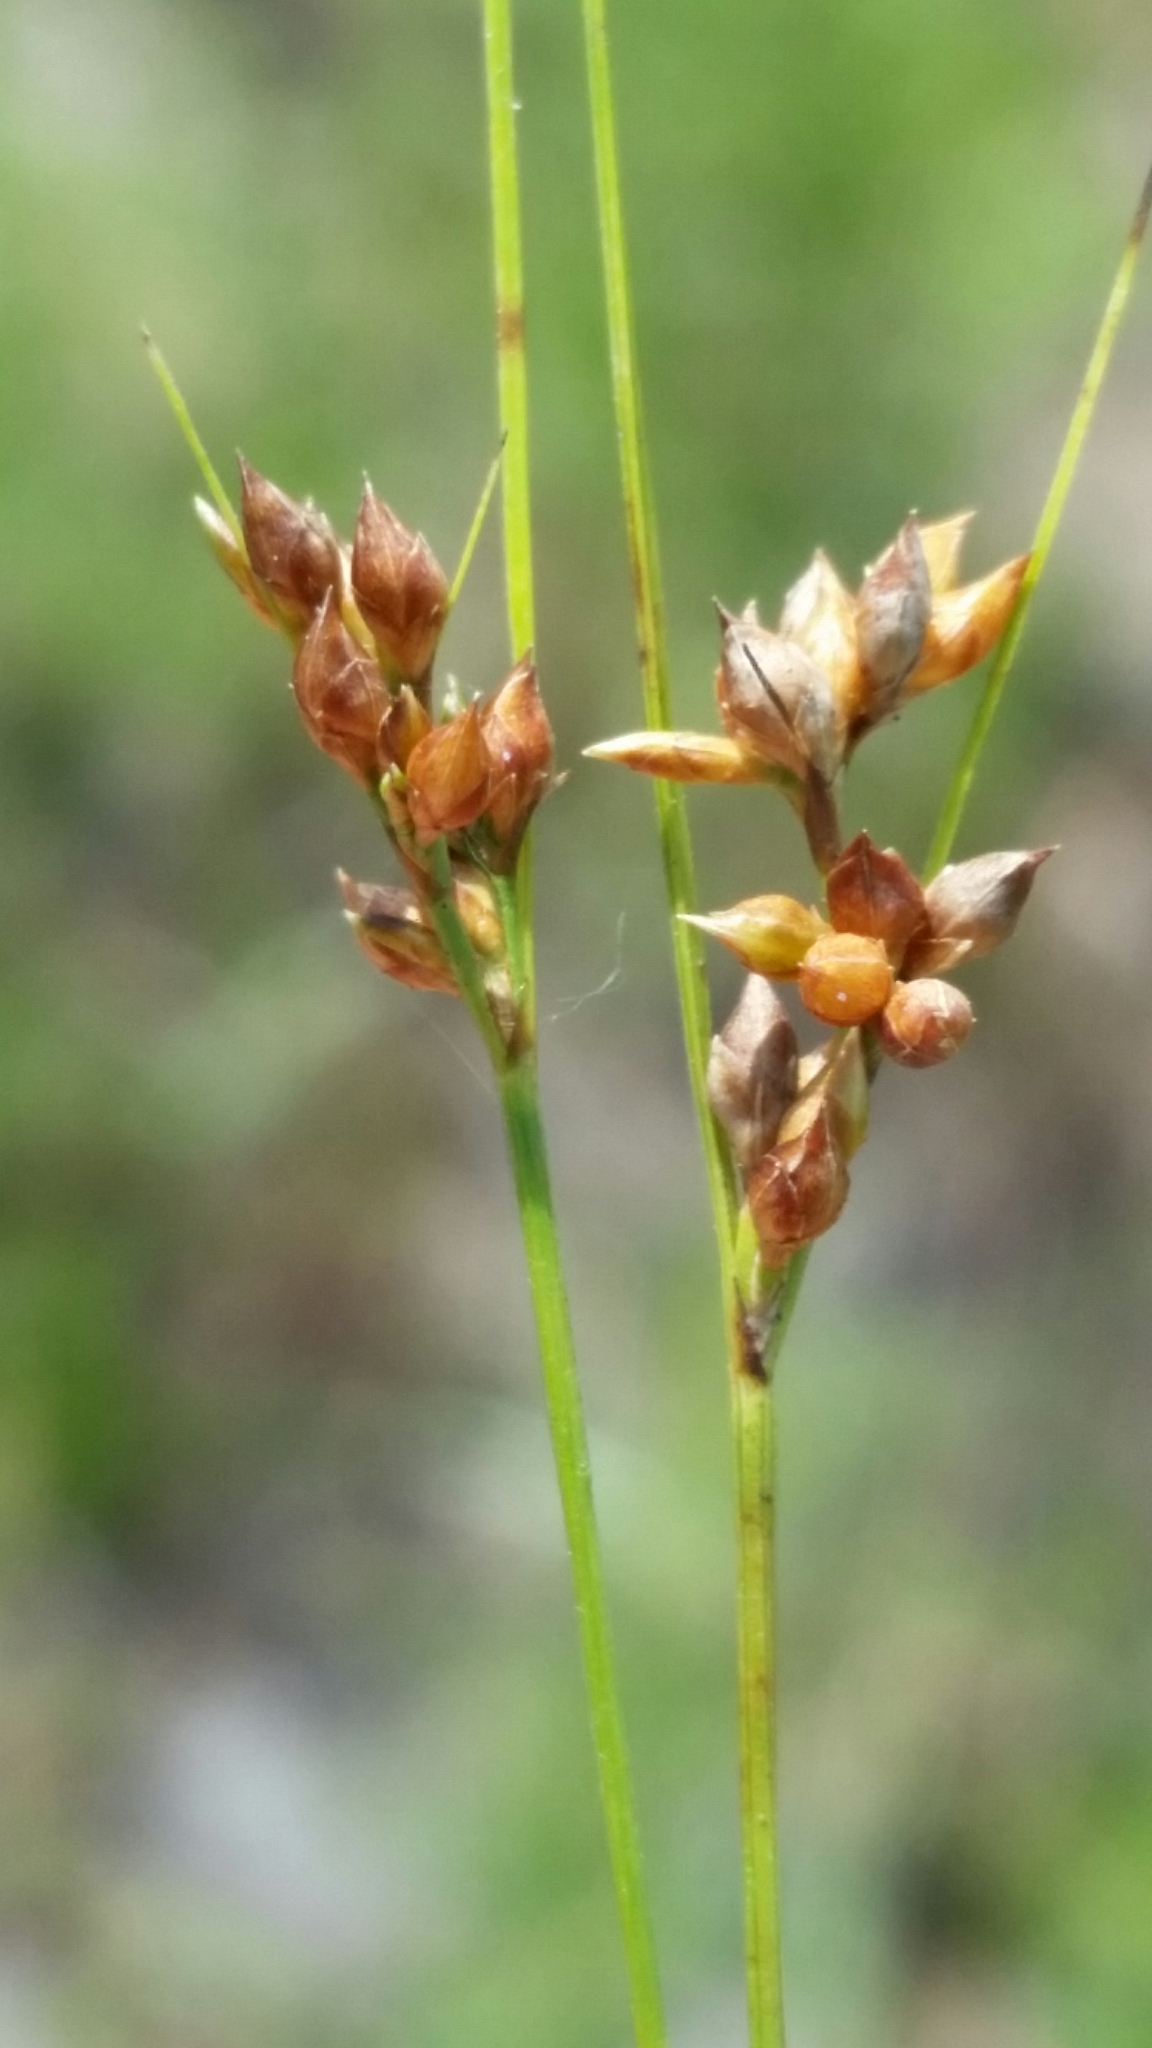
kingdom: Plantae
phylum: Tracheophyta
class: Liliopsida
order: Poales
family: Cyperaceae
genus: Rhynchospora
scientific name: Rhynchospora plumosa
